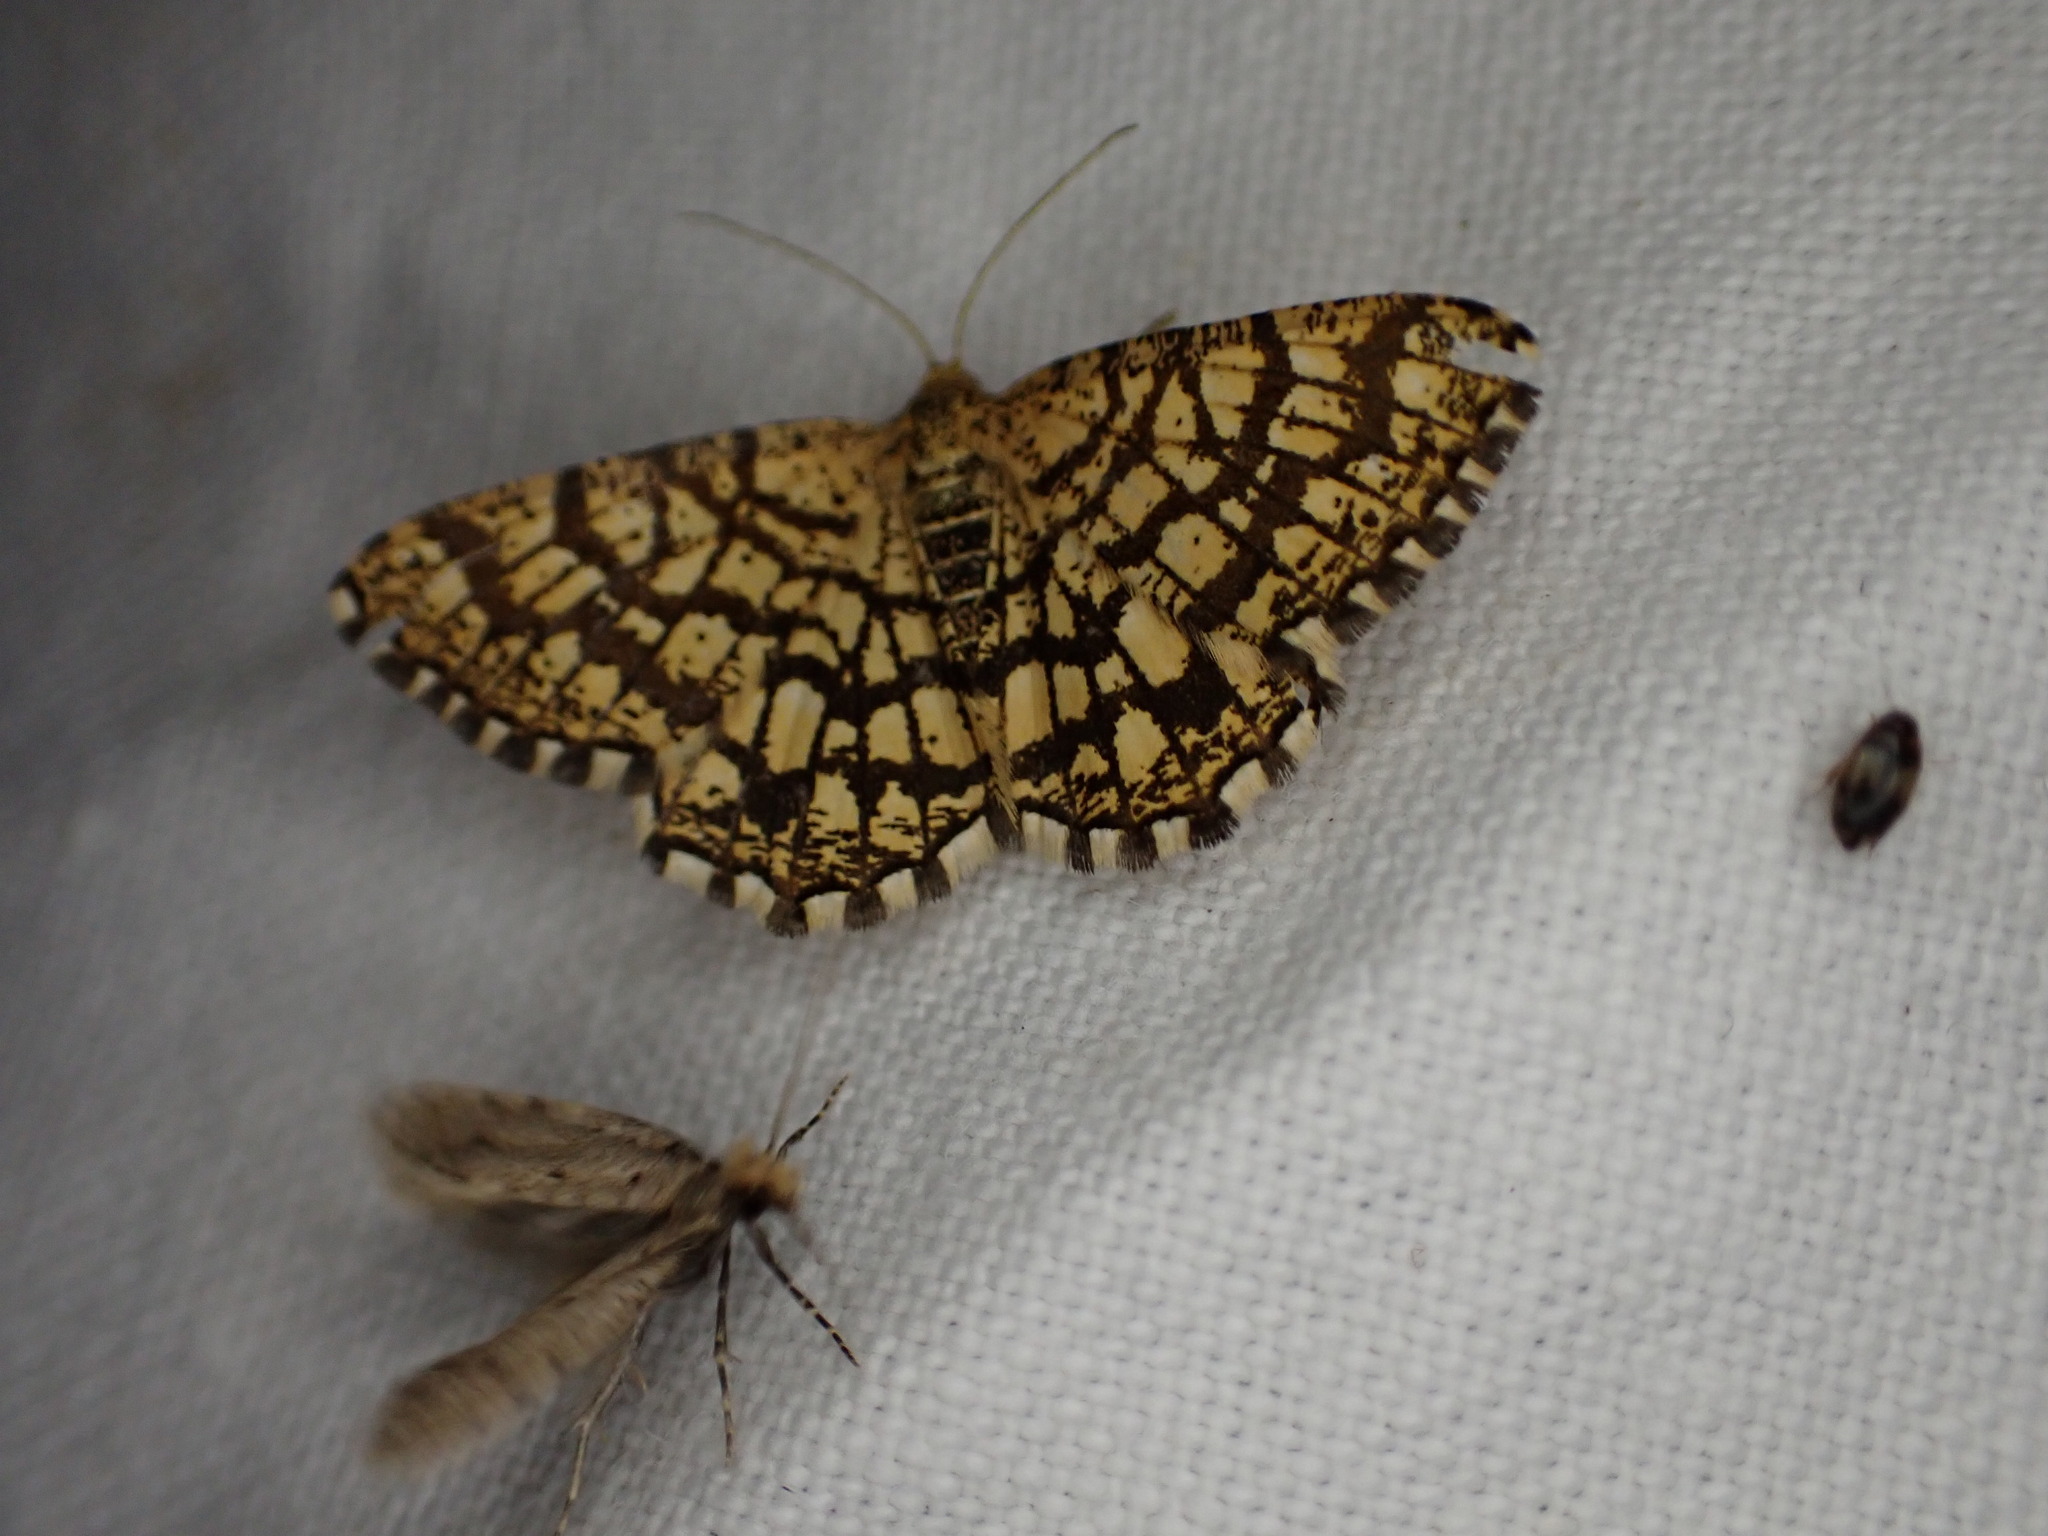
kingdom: Animalia
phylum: Arthropoda
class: Insecta
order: Lepidoptera
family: Geometridae
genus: Chiasmia
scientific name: Chiasmia clathrata
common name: Latticed heath
